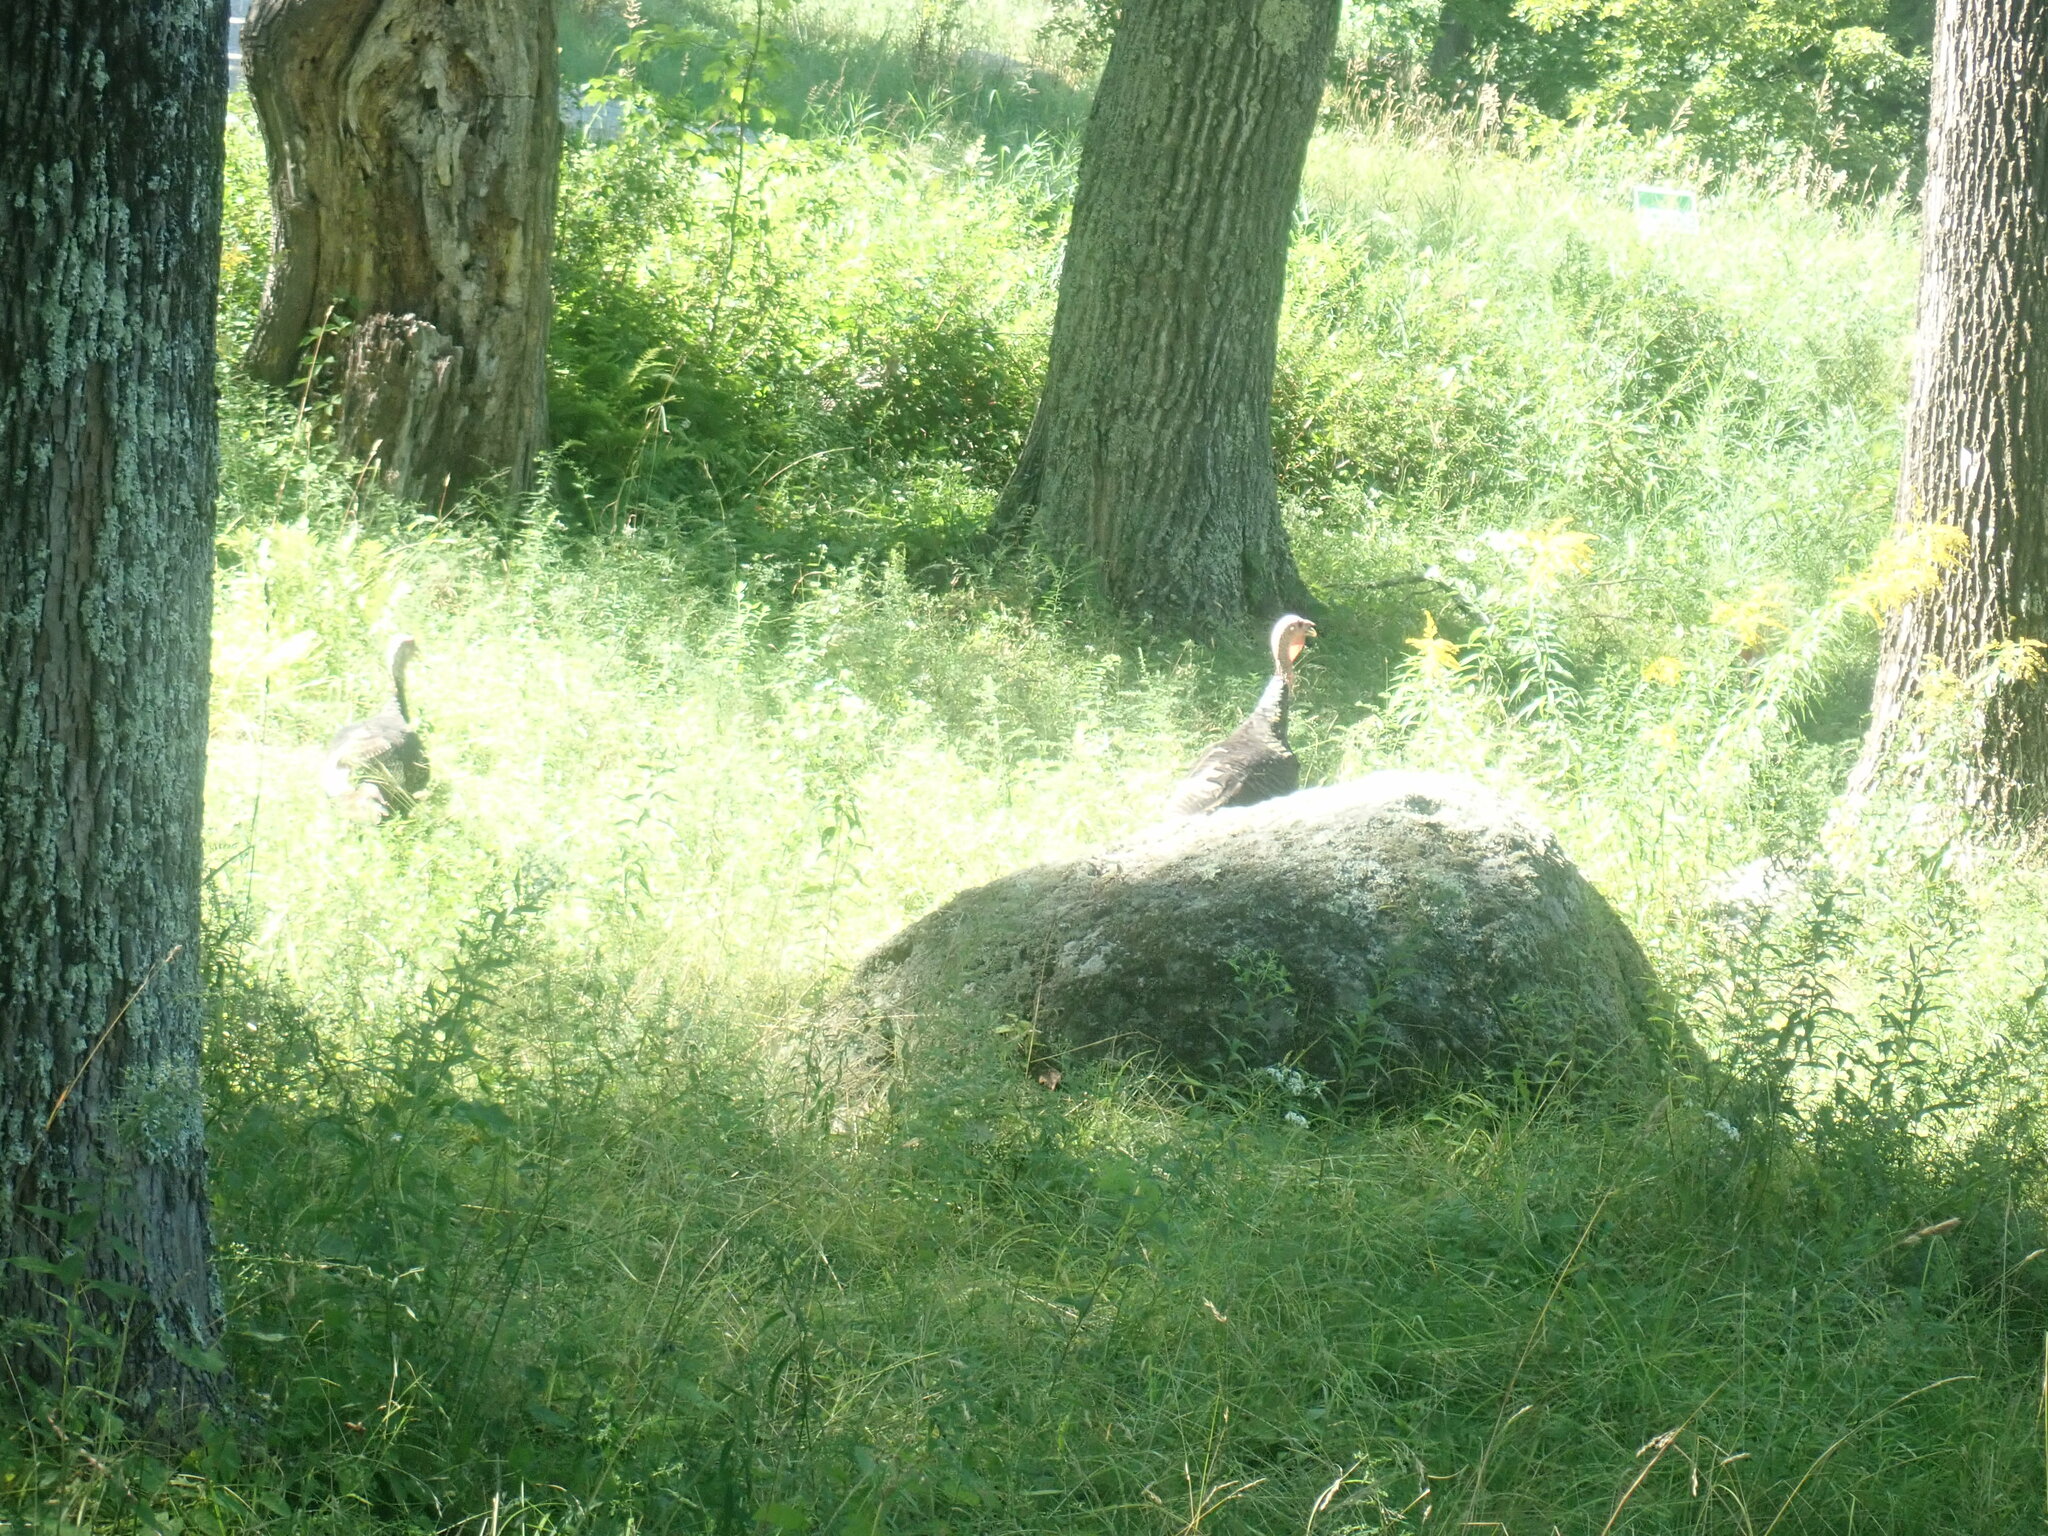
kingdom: Animalia
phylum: Chordata
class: Aves
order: Galliformes
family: Phasianidae
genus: Meleagris
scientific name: Meleagris gallopavo
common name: Wild turkey
